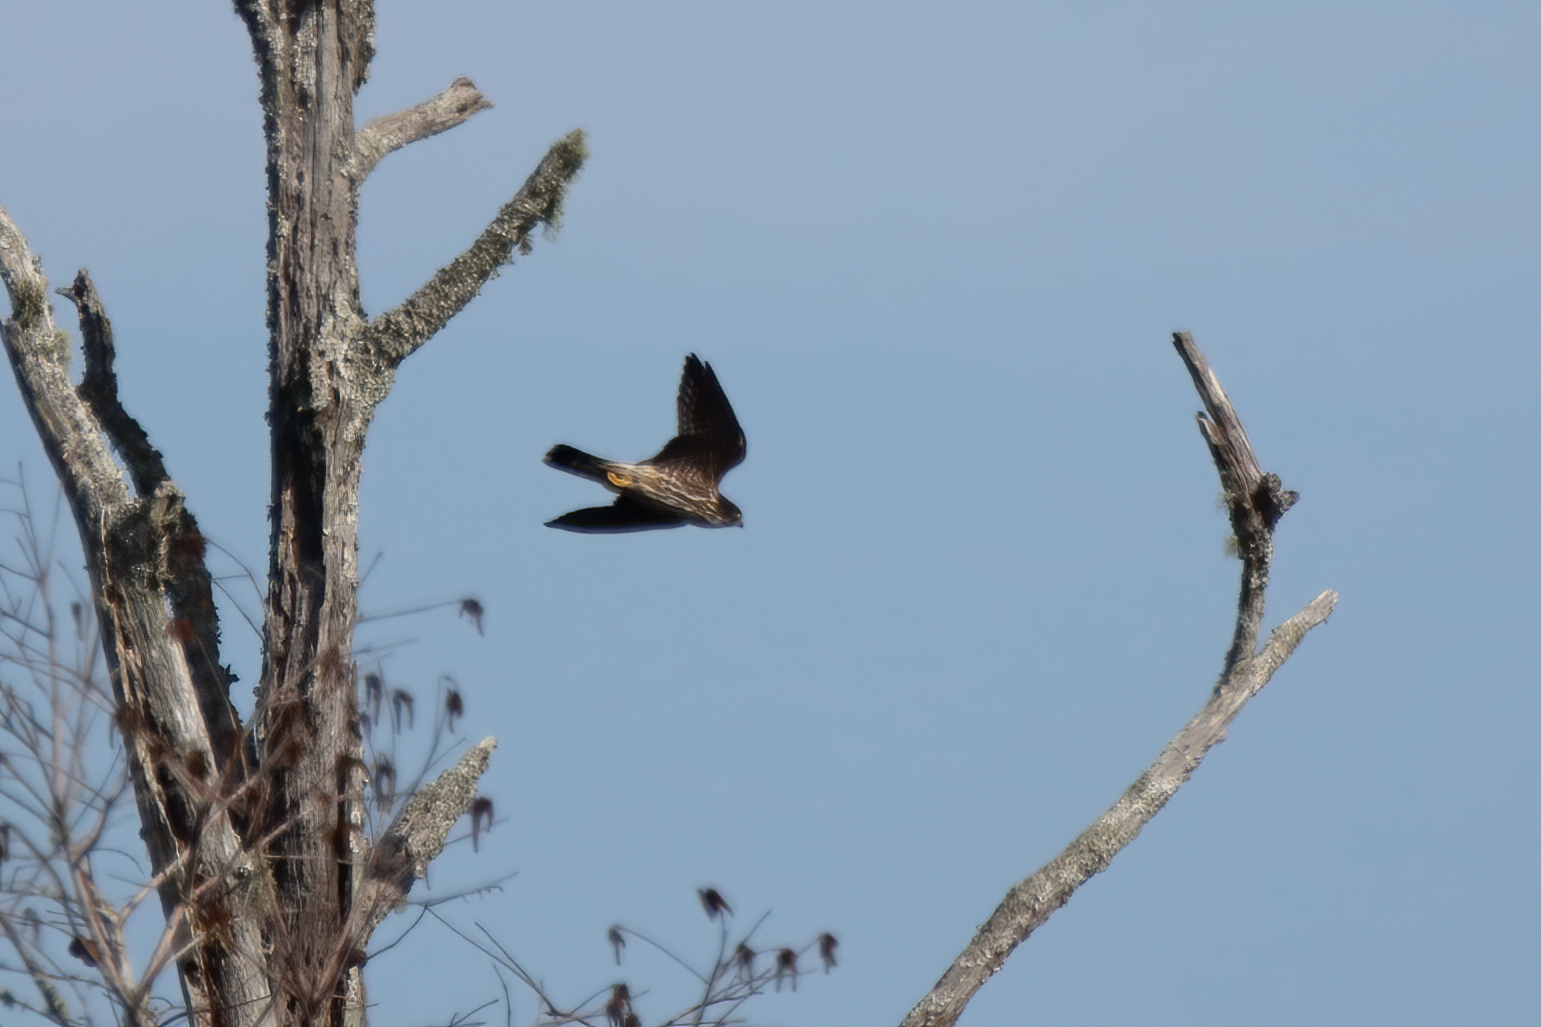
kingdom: Animalia
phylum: Chordata
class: Aves
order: Falconiformes
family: Falconidae
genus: Falco
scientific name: Falco columbarius
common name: Merlin
